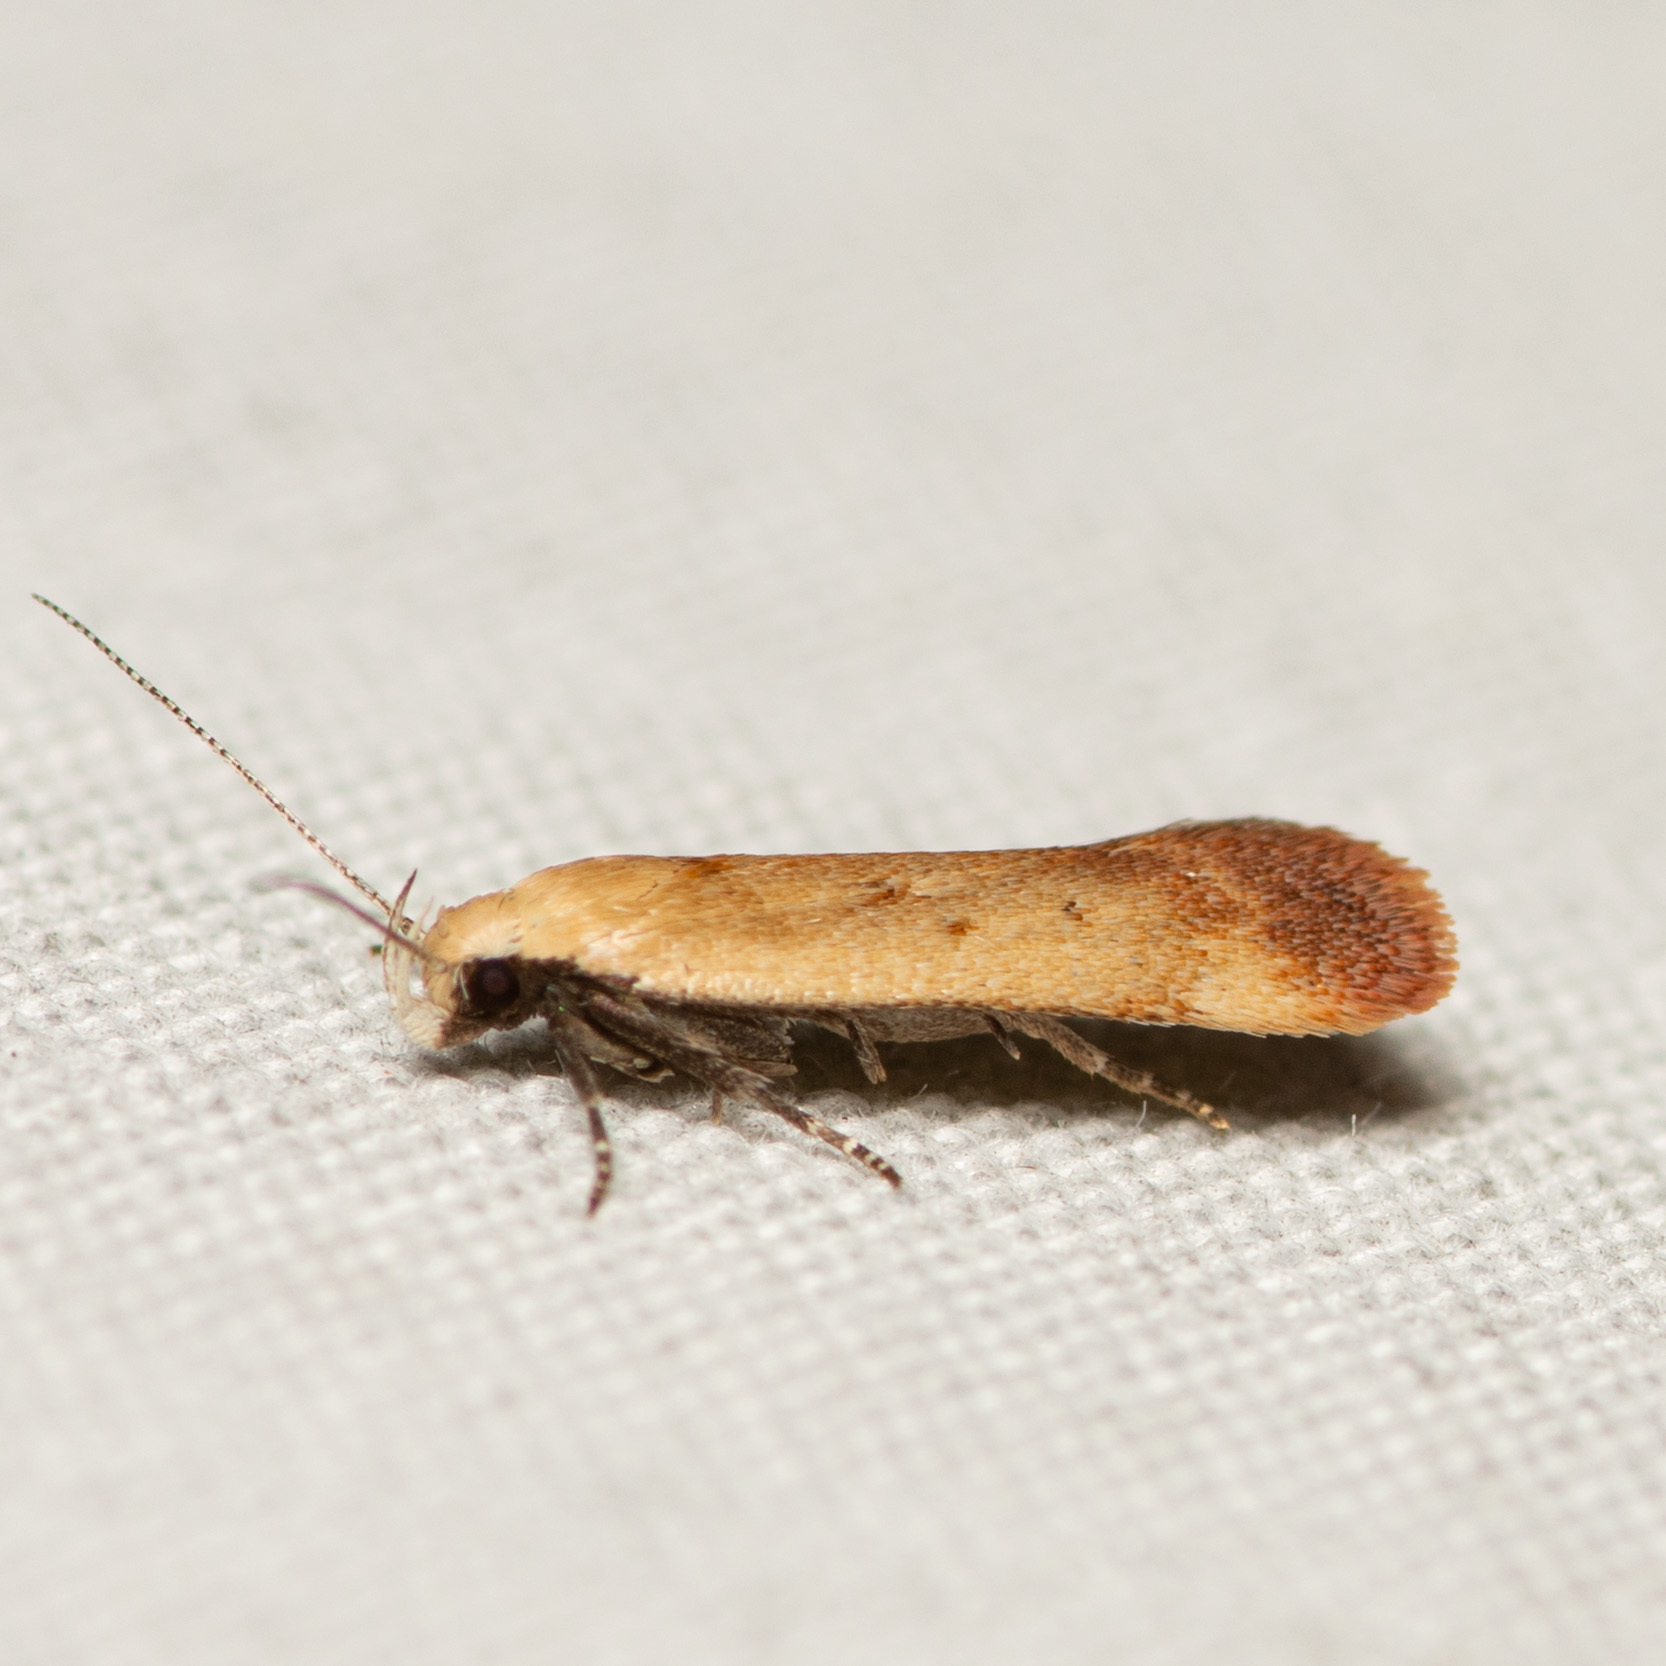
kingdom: Animalia
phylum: Arthropoda
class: Insecta
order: Lepidoptera
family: Gelechiidae
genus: Anacampsis
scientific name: Anacampsis fullonella
